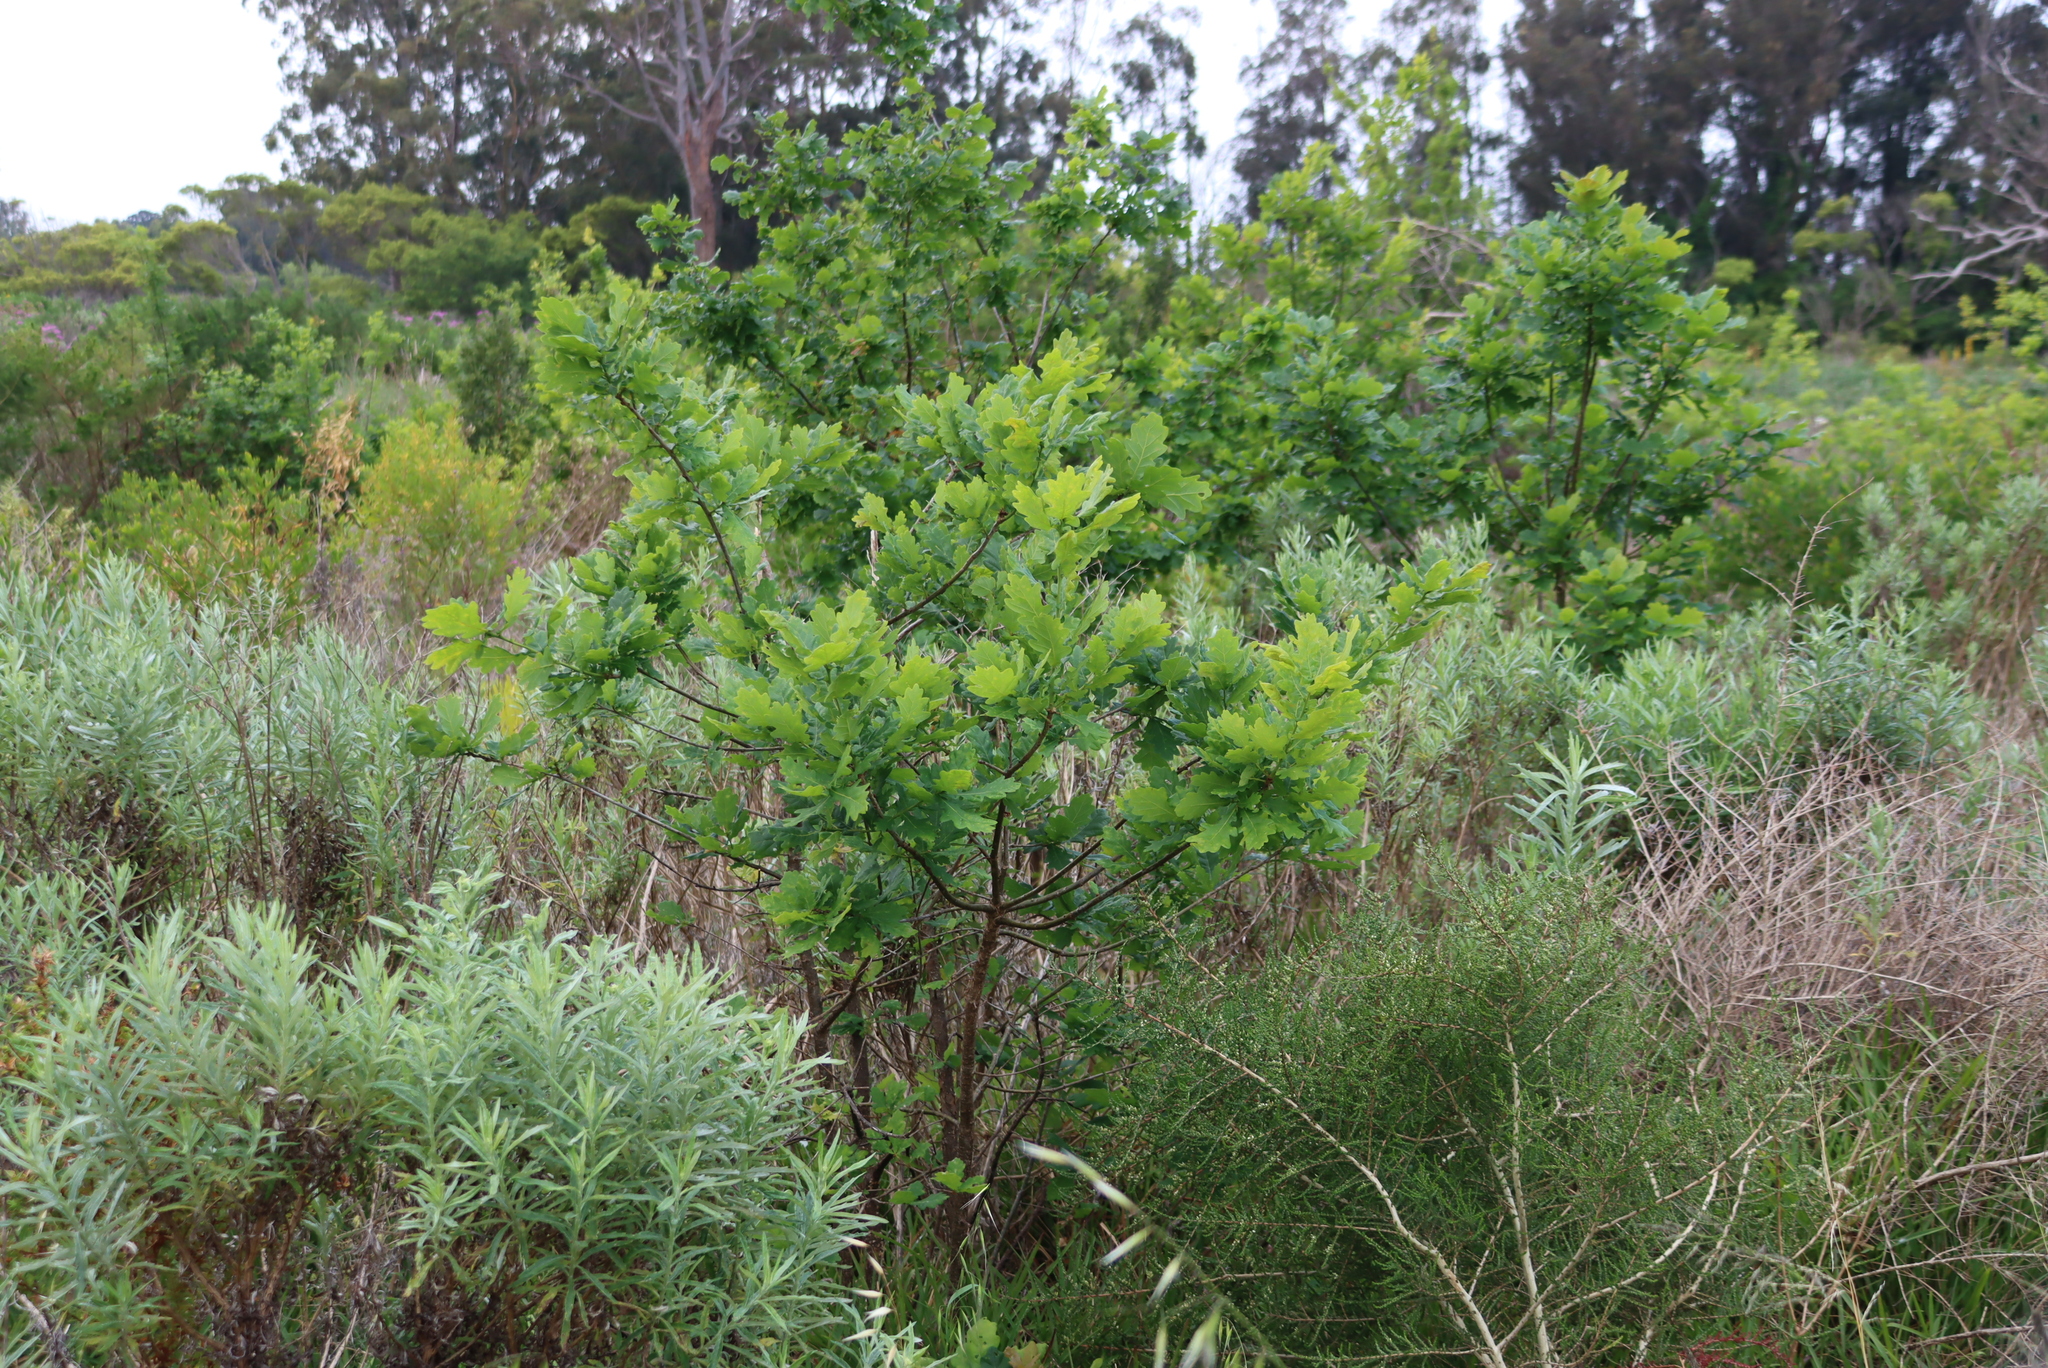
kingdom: Plantae
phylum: Tracheophyta
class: Magnoliopsida
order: Fagales
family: Fagaceae
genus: Quercus
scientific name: Quercus robur
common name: Pedunculate oak
